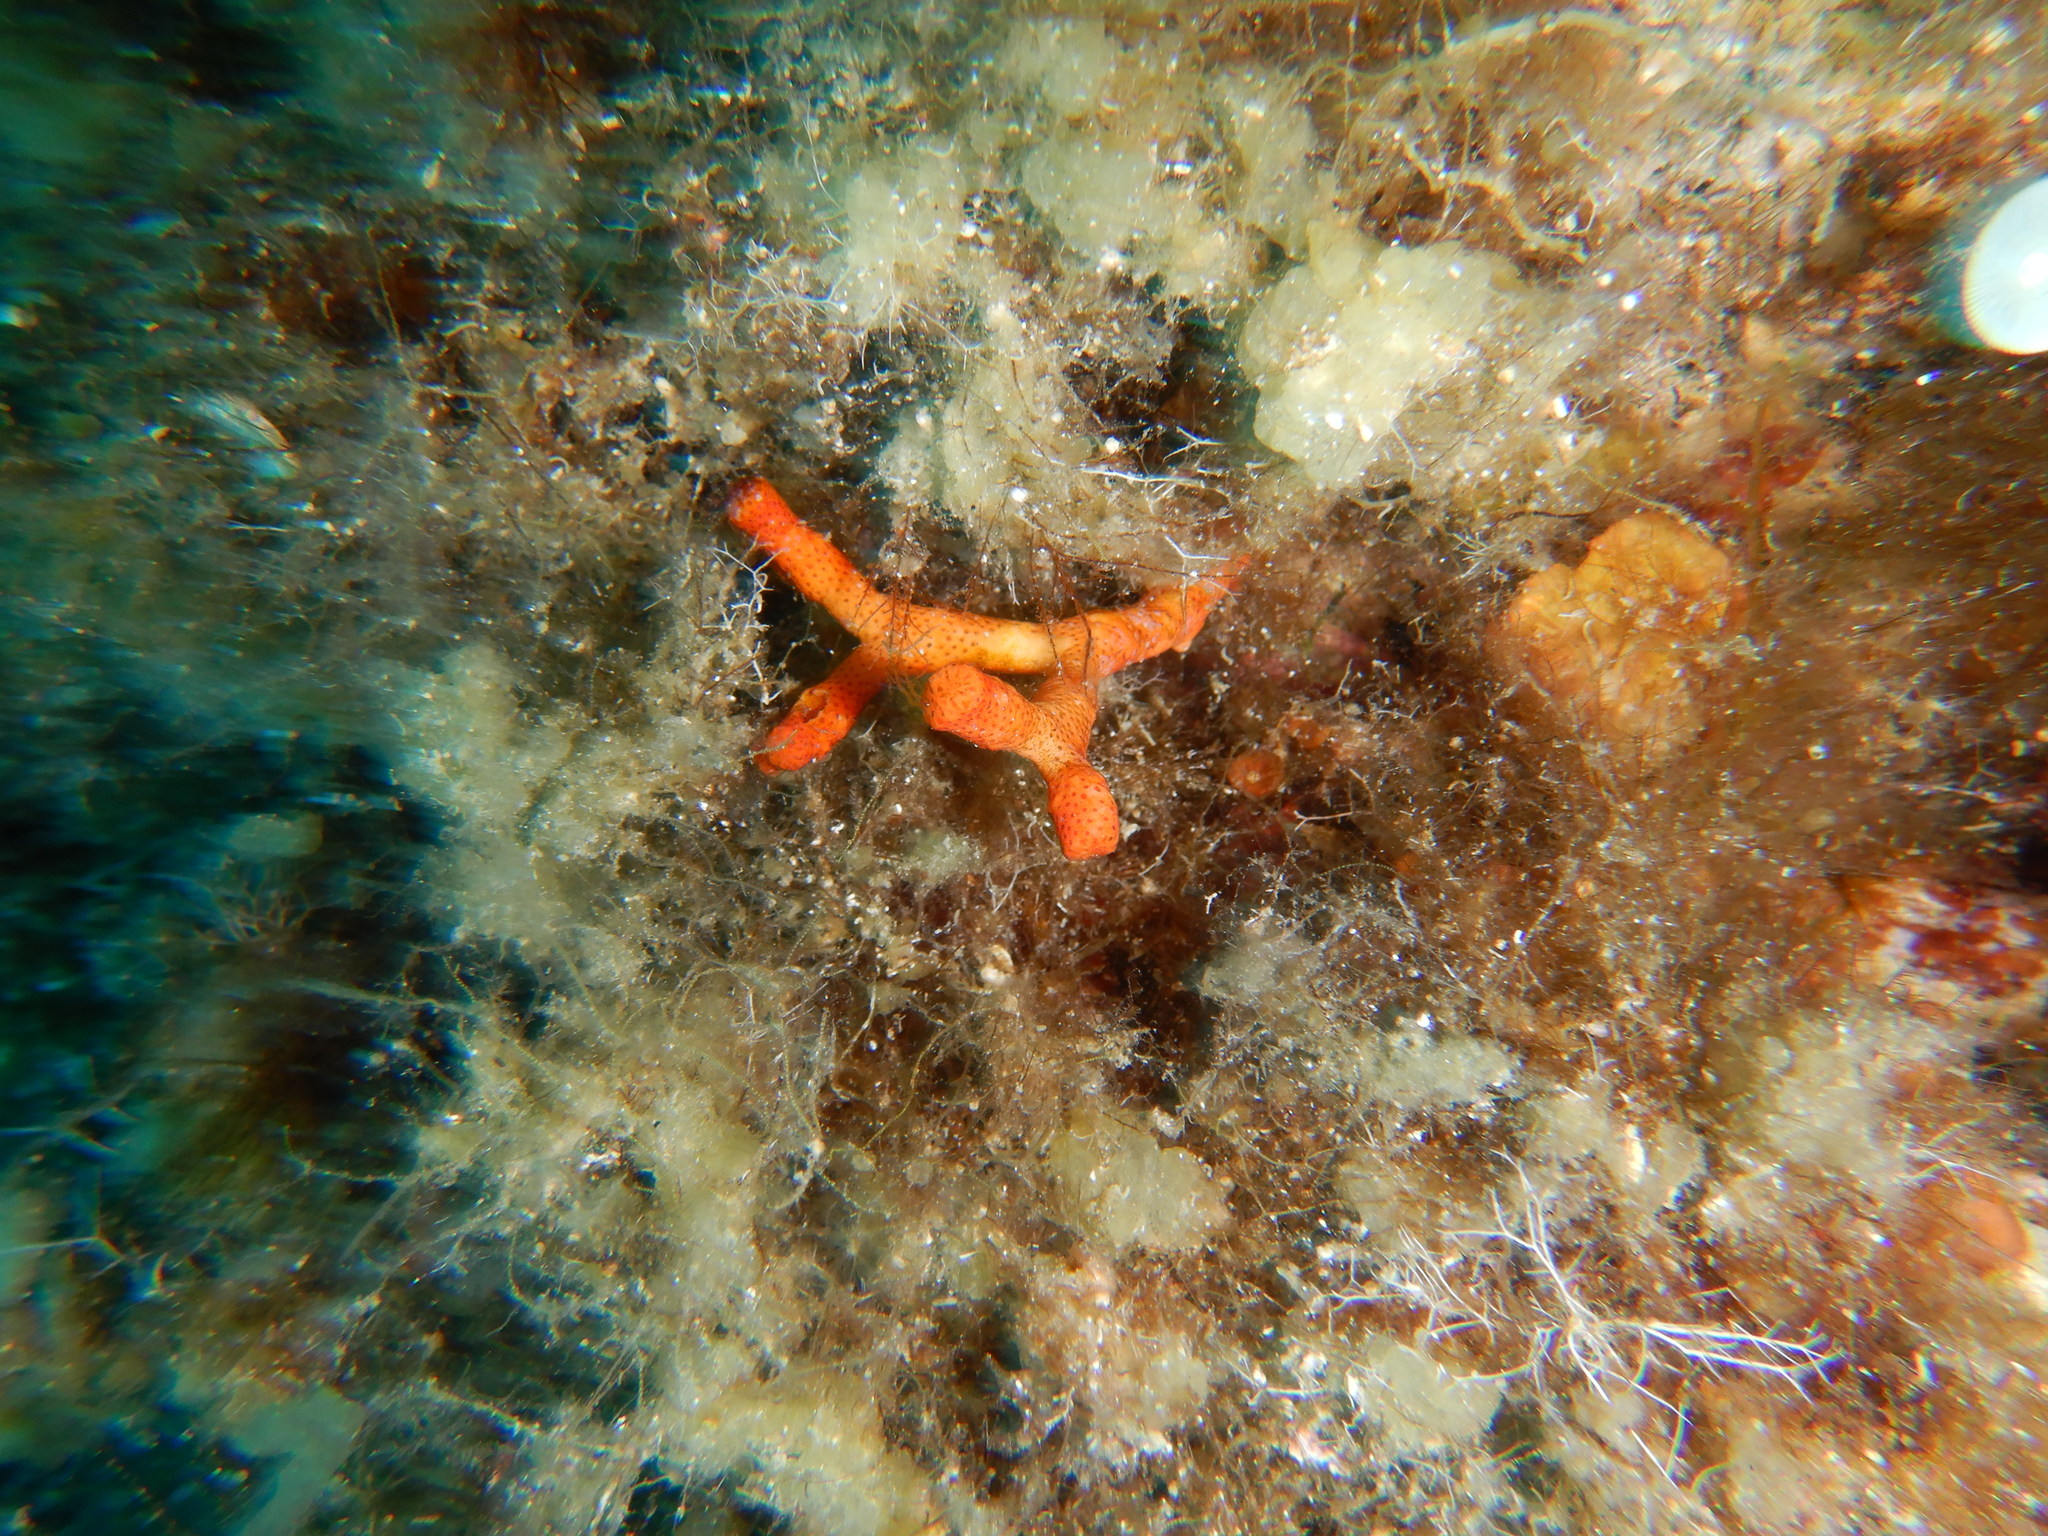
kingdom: Animalia
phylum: Bryozoa
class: Gymnolaemata
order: Cheilostomatida
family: Myriaporidae
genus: Myriapora
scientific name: Myriapora truncata
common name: False coral
